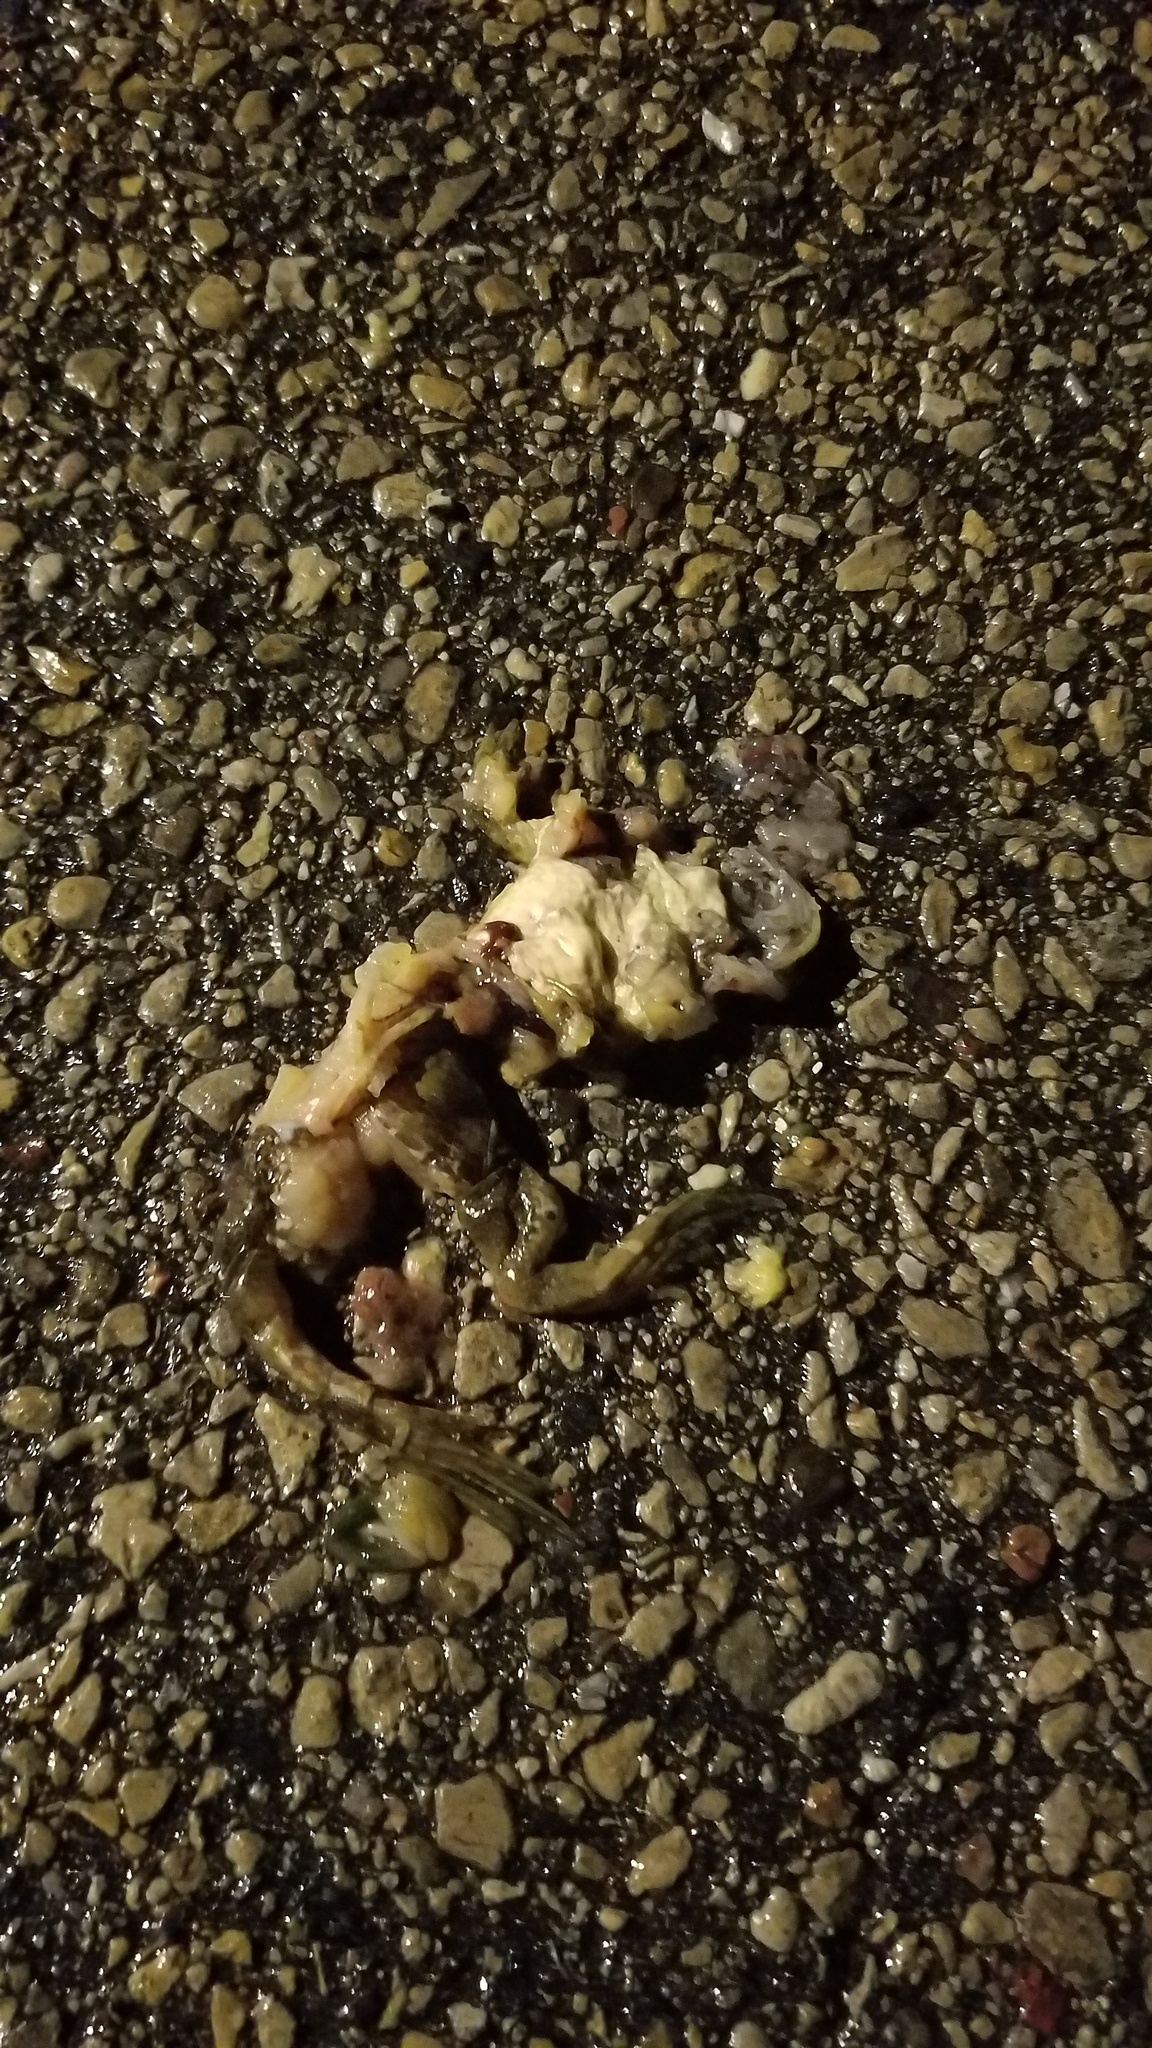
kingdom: Animalia
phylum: Chordata
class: Amphibia
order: Anura
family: Ranidae
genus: Lithobates
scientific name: Lithobates catesbeianus
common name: American bullfrog
